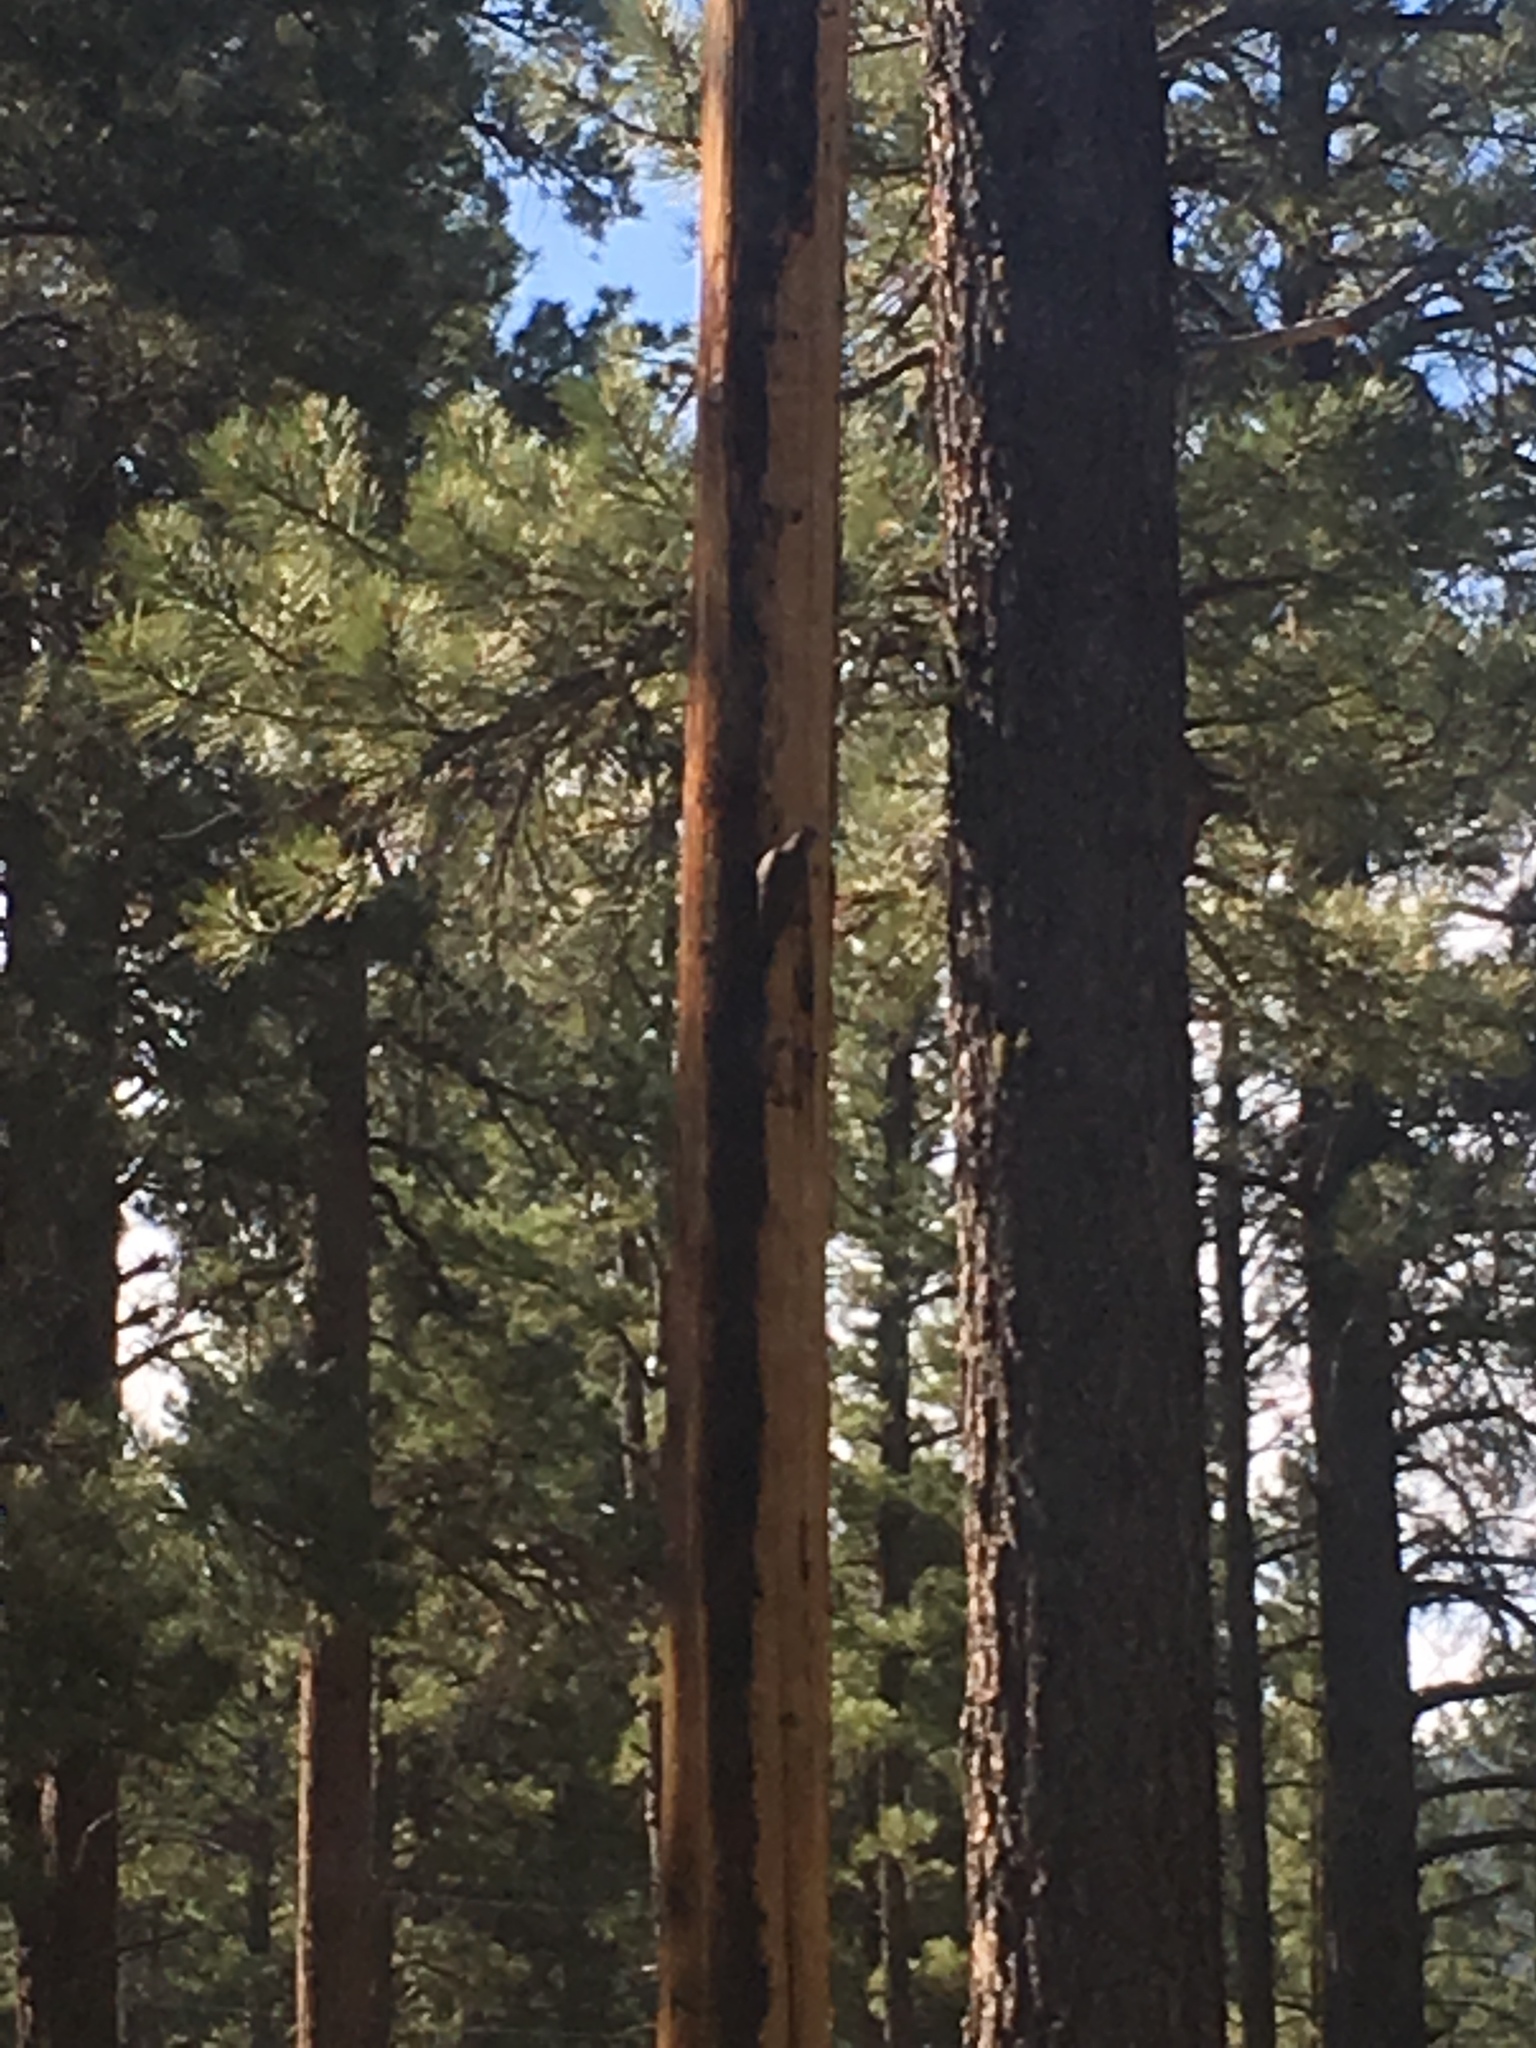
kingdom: Animalia
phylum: Chordata
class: Aves
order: Piciformes
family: Picidae
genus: Colaptes
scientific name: Colaptes auratus
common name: Northern flicker
